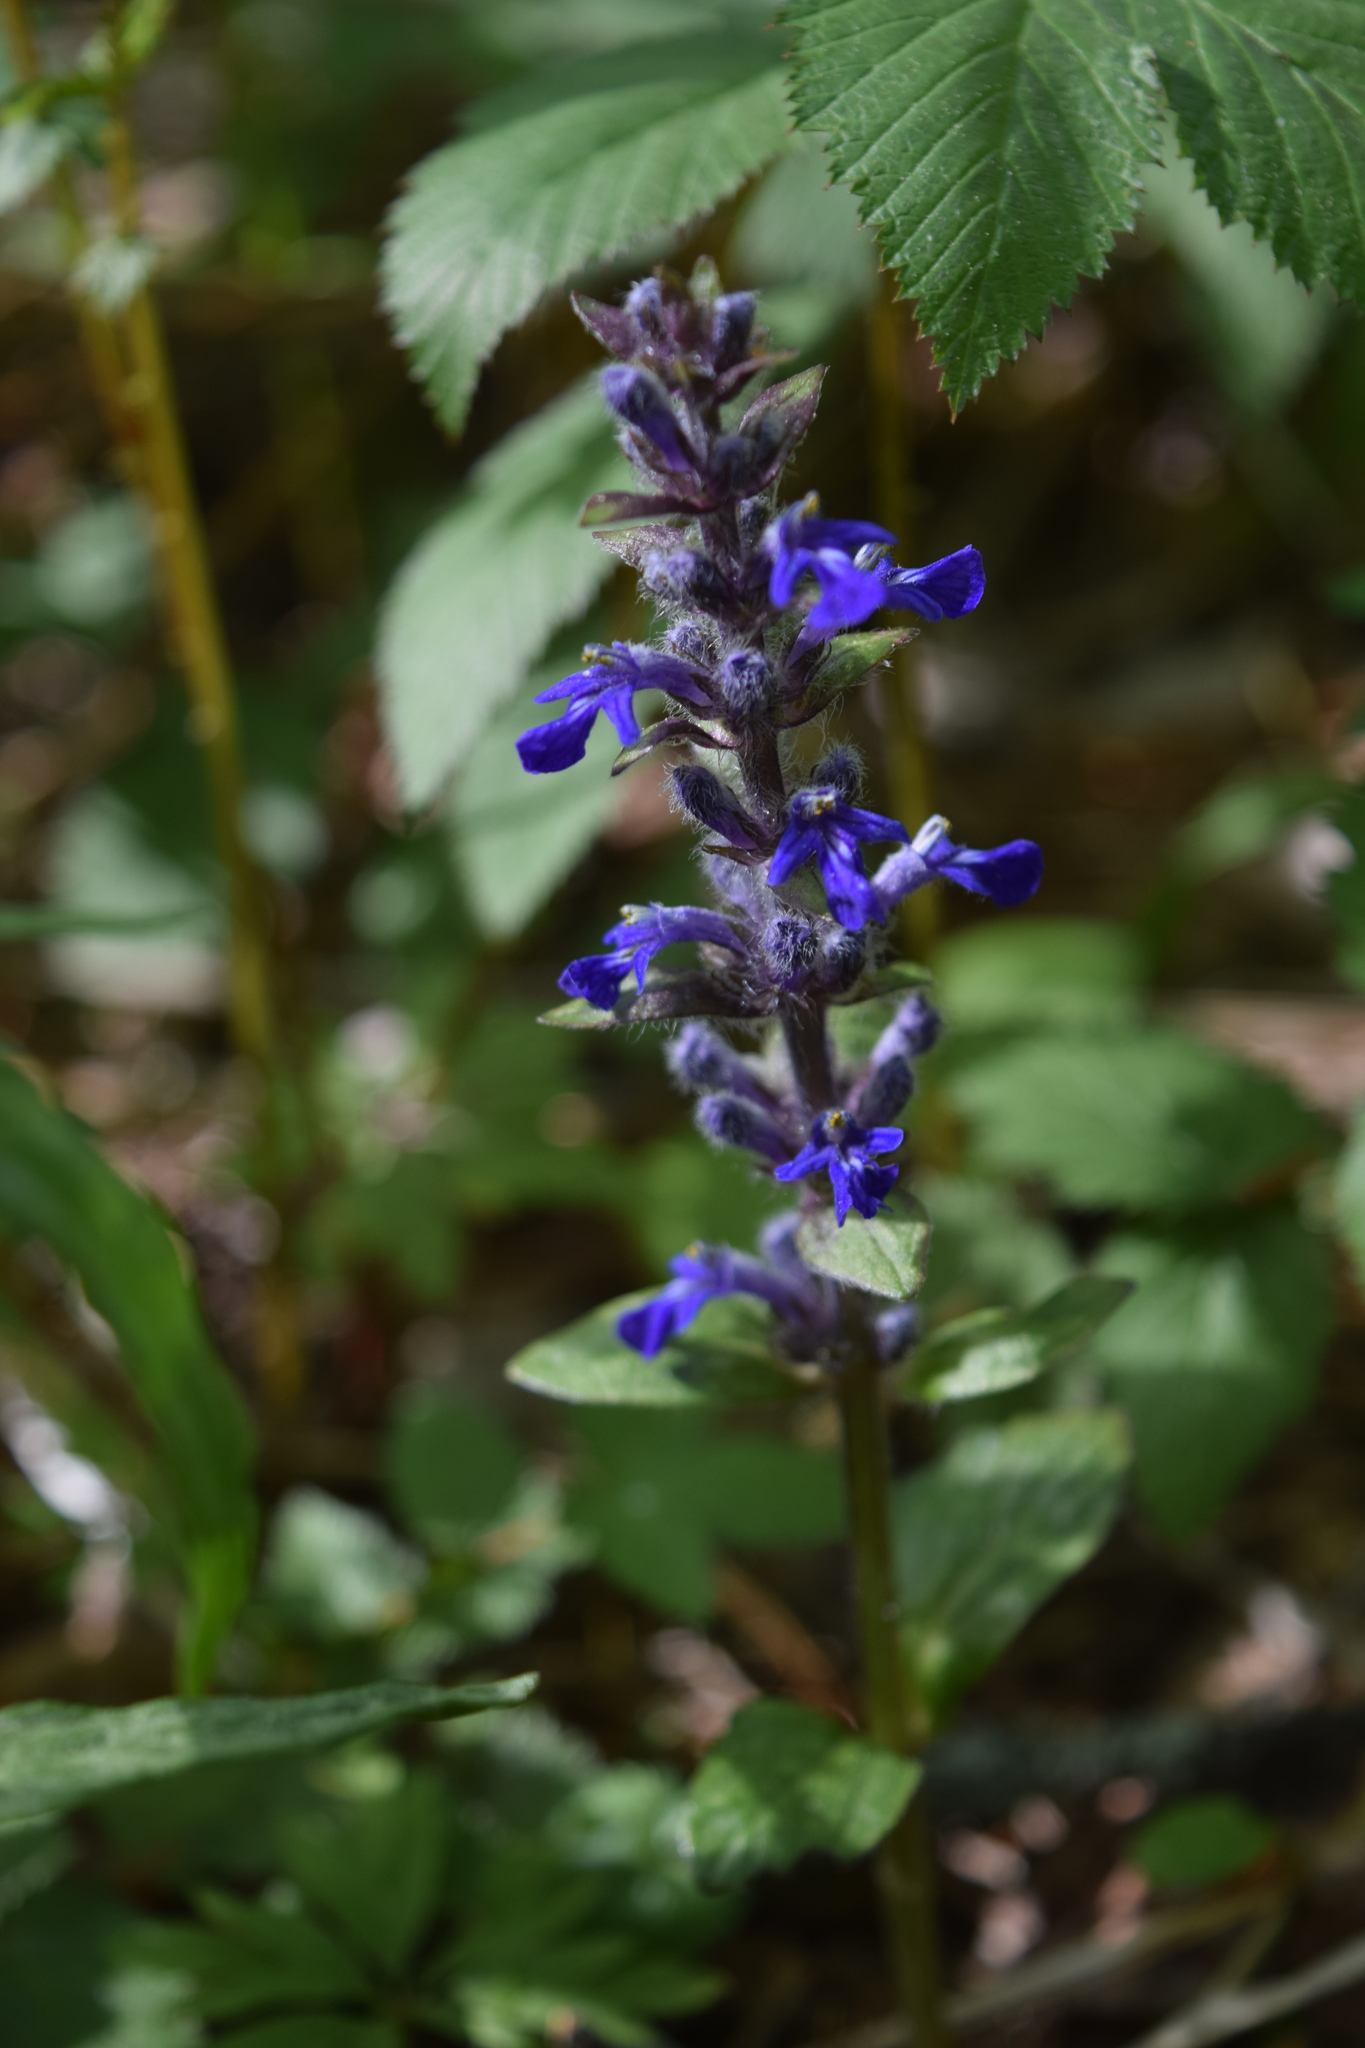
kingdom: Plantae
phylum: Tracheophyta
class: Magnoliopsida
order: Lamiales
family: Lamiaceae
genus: Ajuga
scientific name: Ajuga reptans
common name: Bugle
